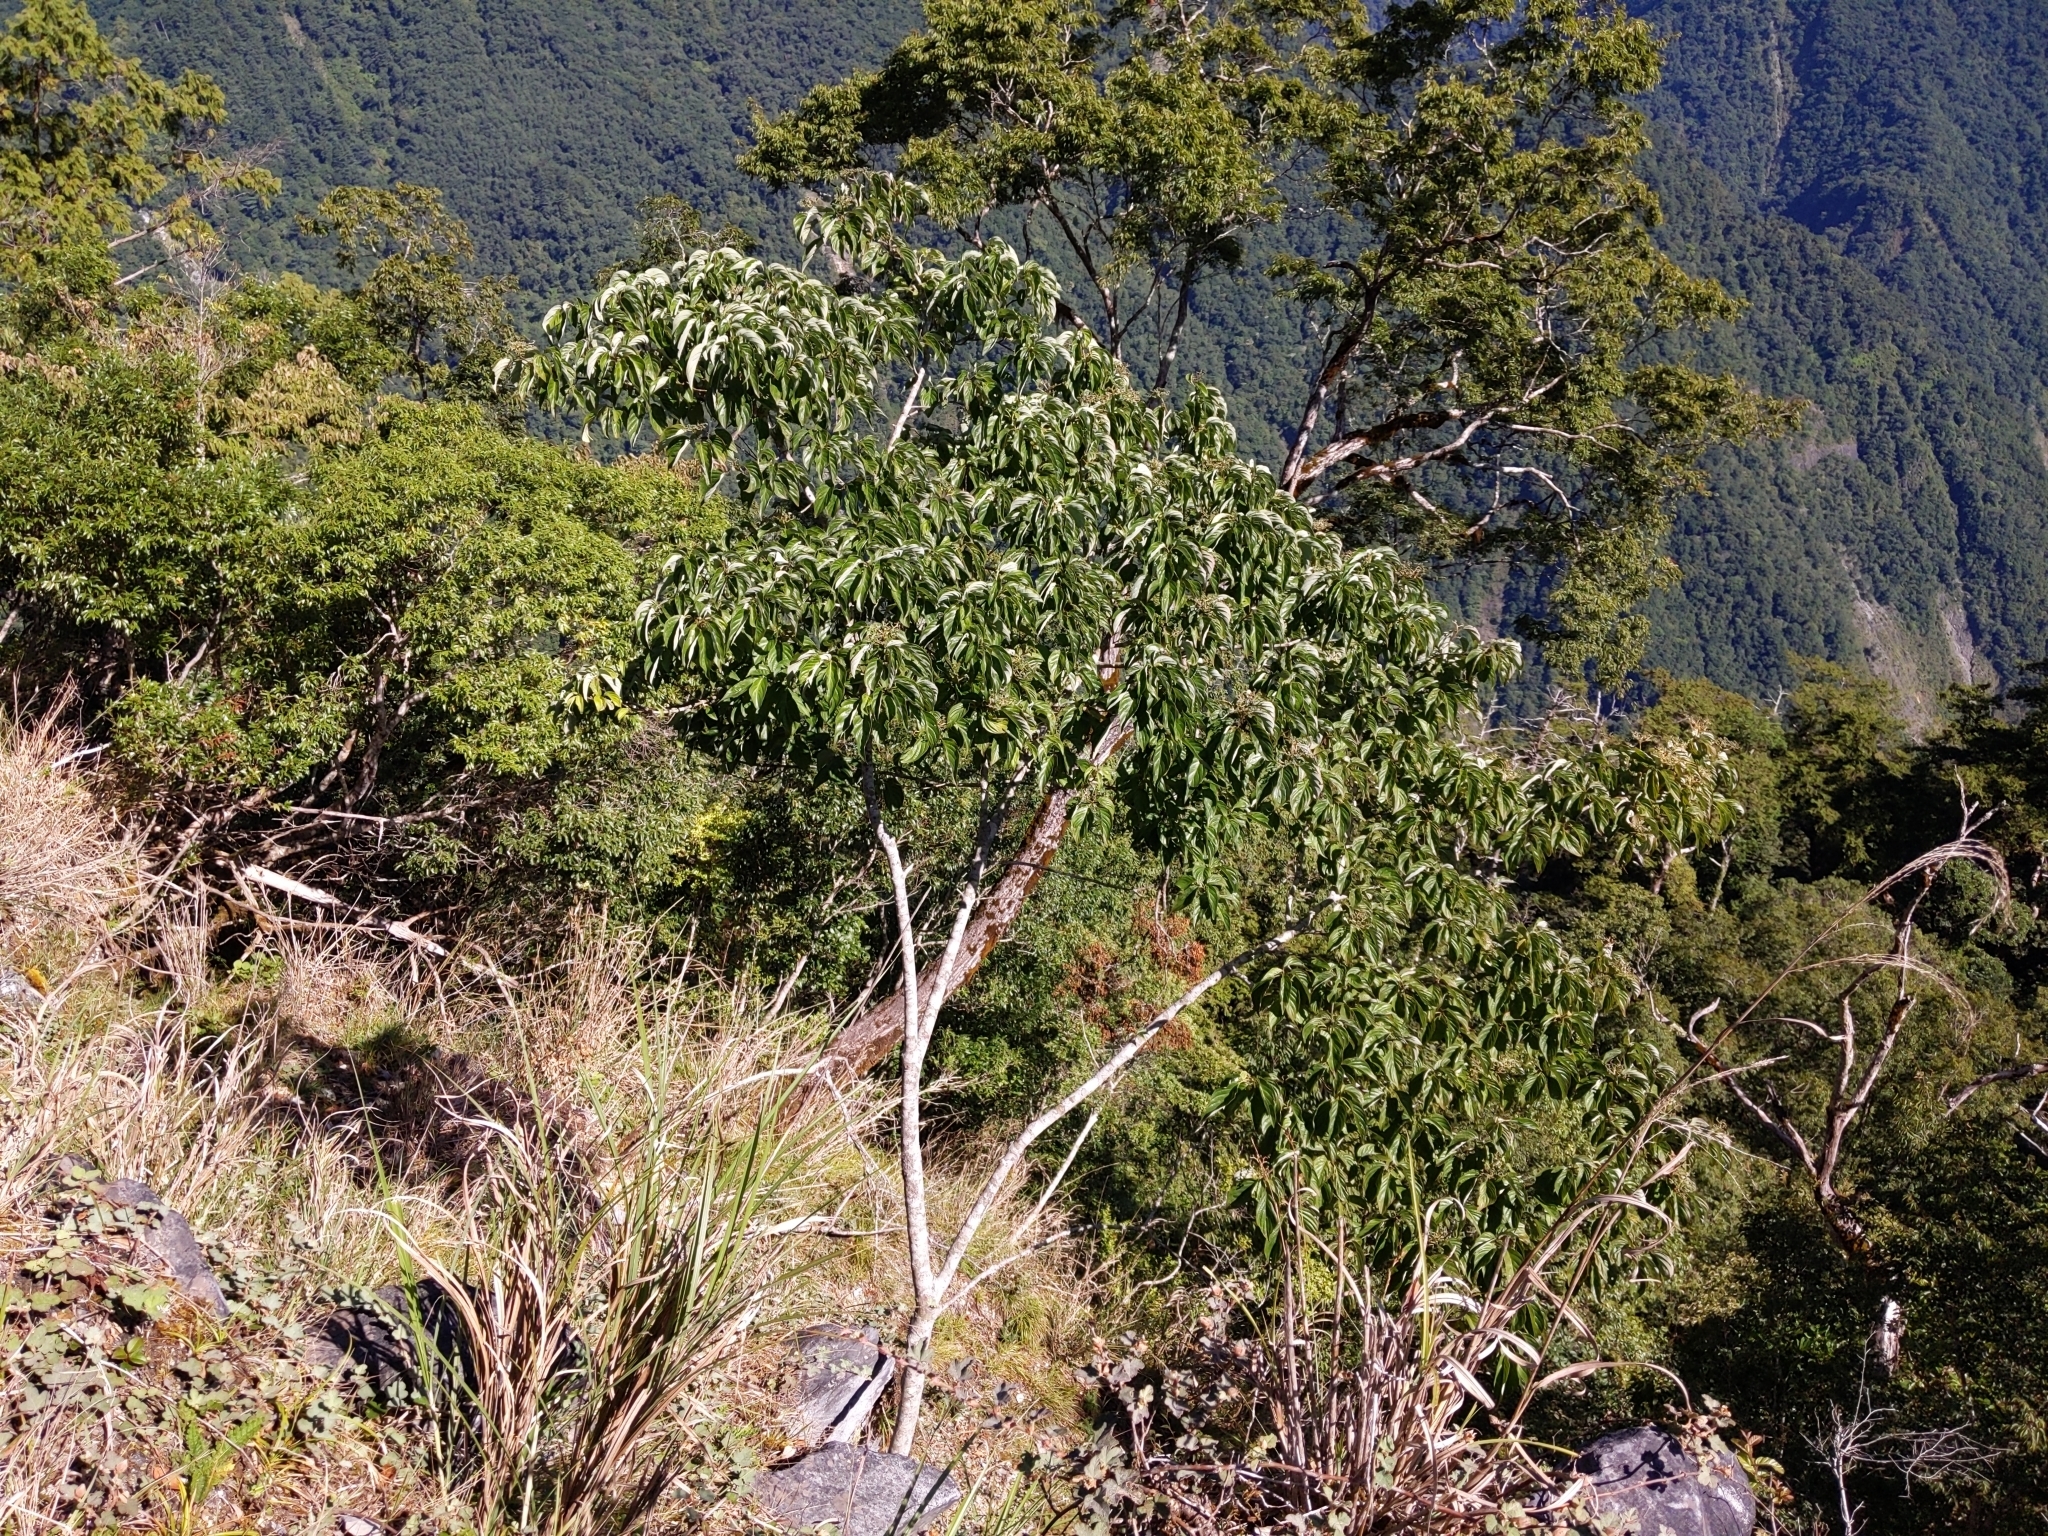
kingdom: Plantae
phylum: Tracheophyta
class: Magnoliopsida
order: Cornales
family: Cornaceae
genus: Cornus
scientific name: Cornus macrophylla
